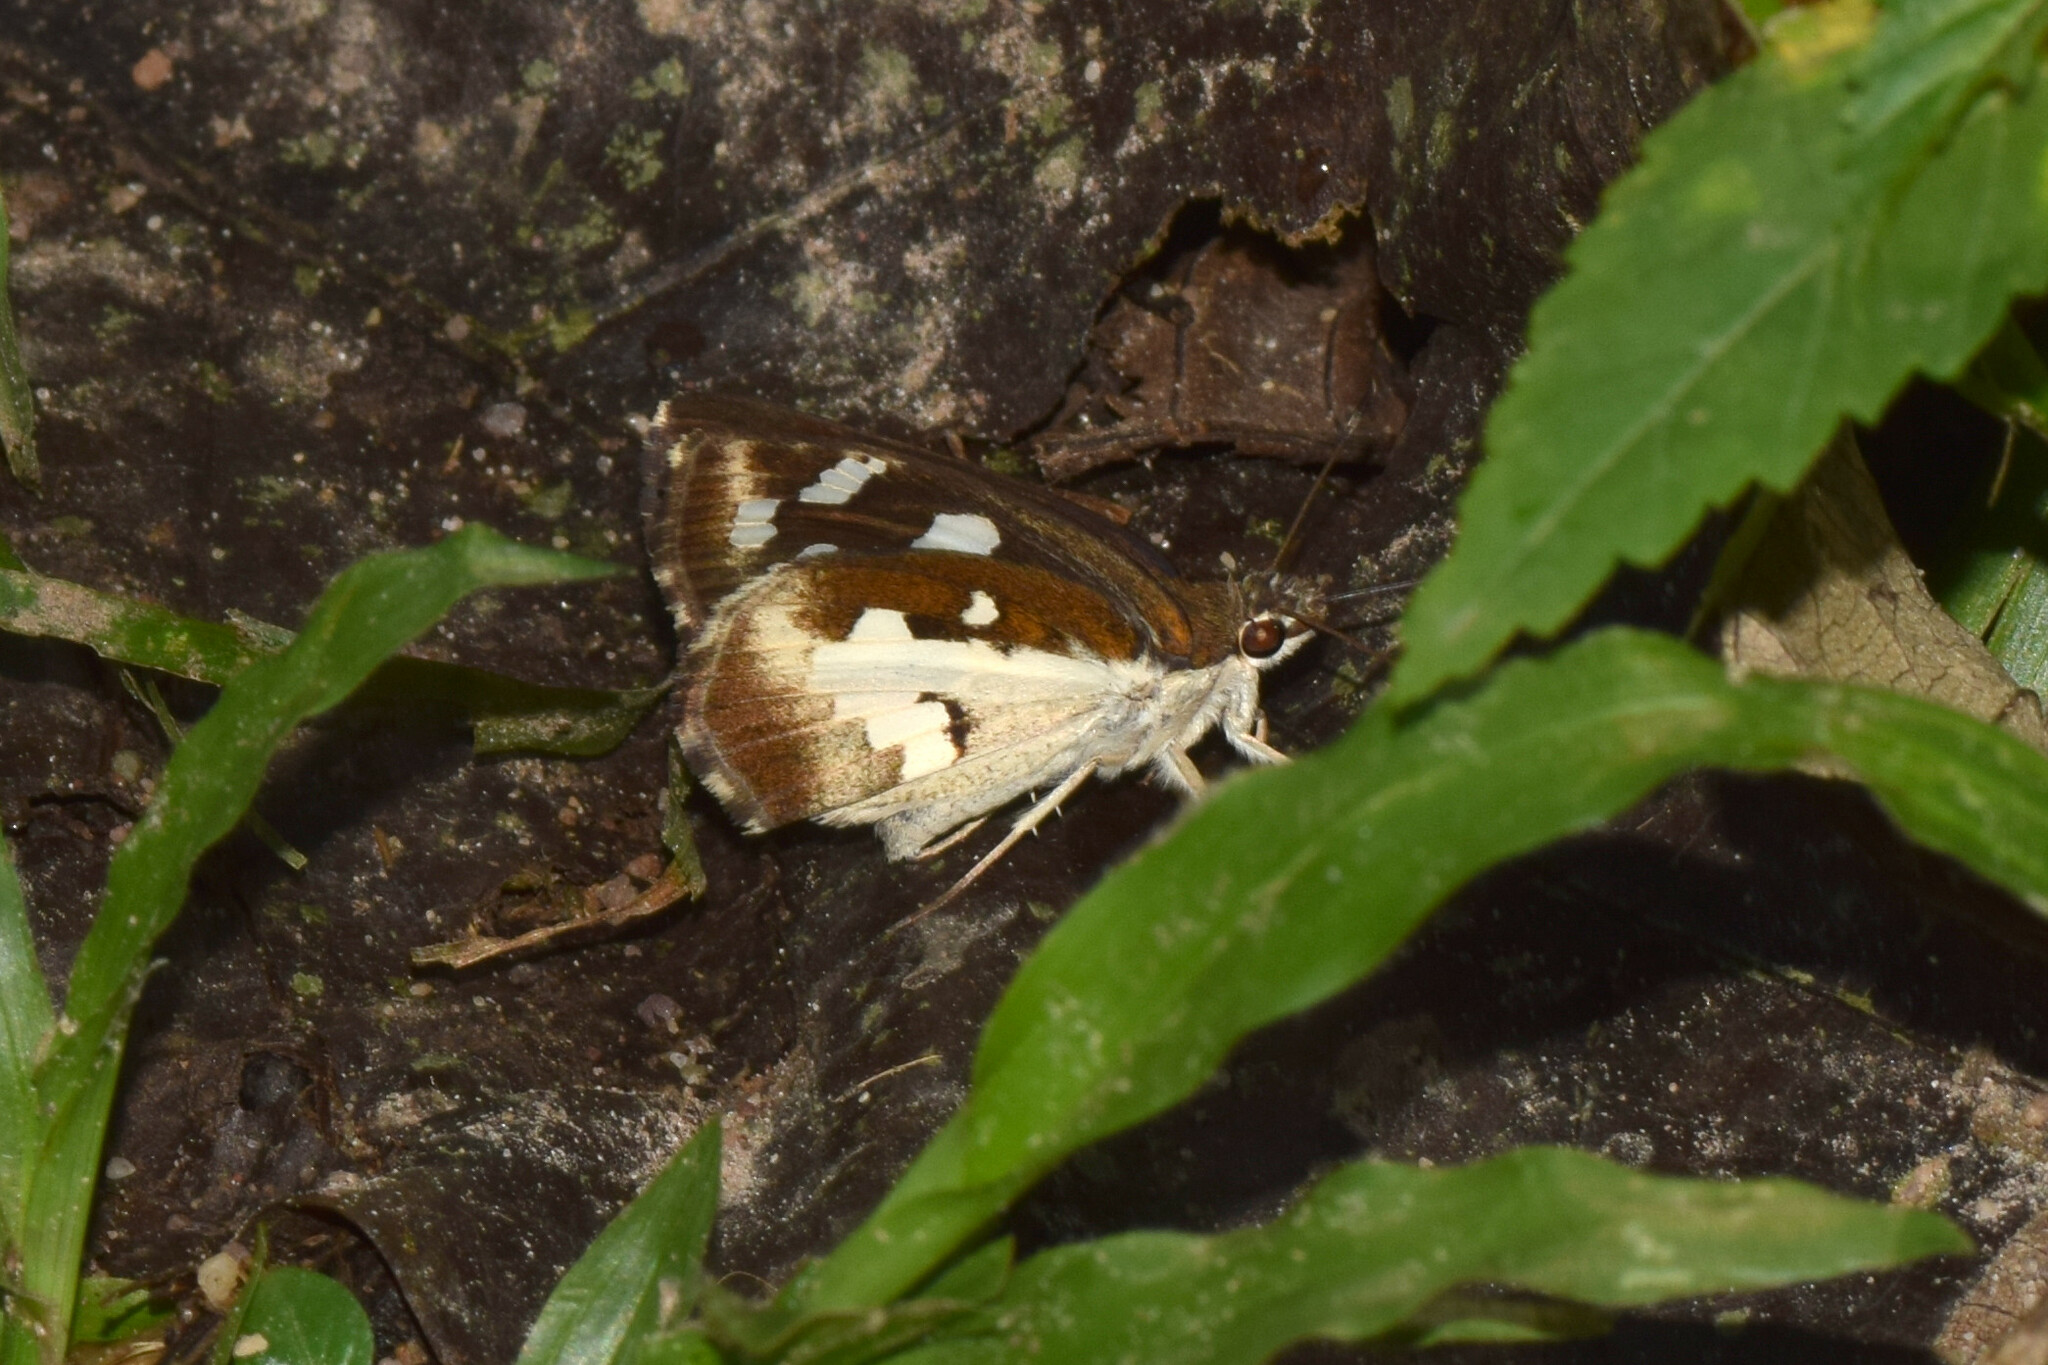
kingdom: Animalia
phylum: Arthropoda
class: Insecta
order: Lepidoptera
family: Hesperiidae
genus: Udaspes
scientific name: Udaspes folus
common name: Grass demon
